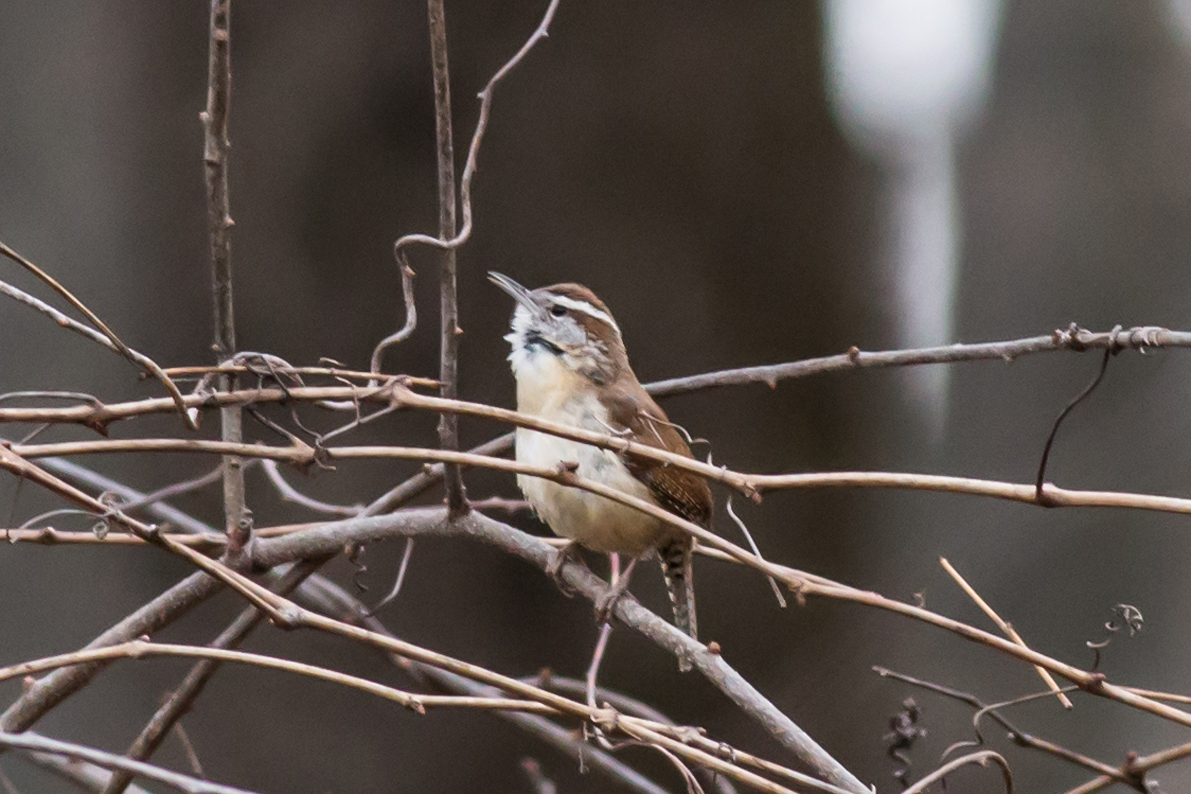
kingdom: Animalia
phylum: Chordata
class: Aves
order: Passeriformes
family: Troglodytidae
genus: Thryothorus
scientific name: Thryothorus ludovicianus
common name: Carolina wren
